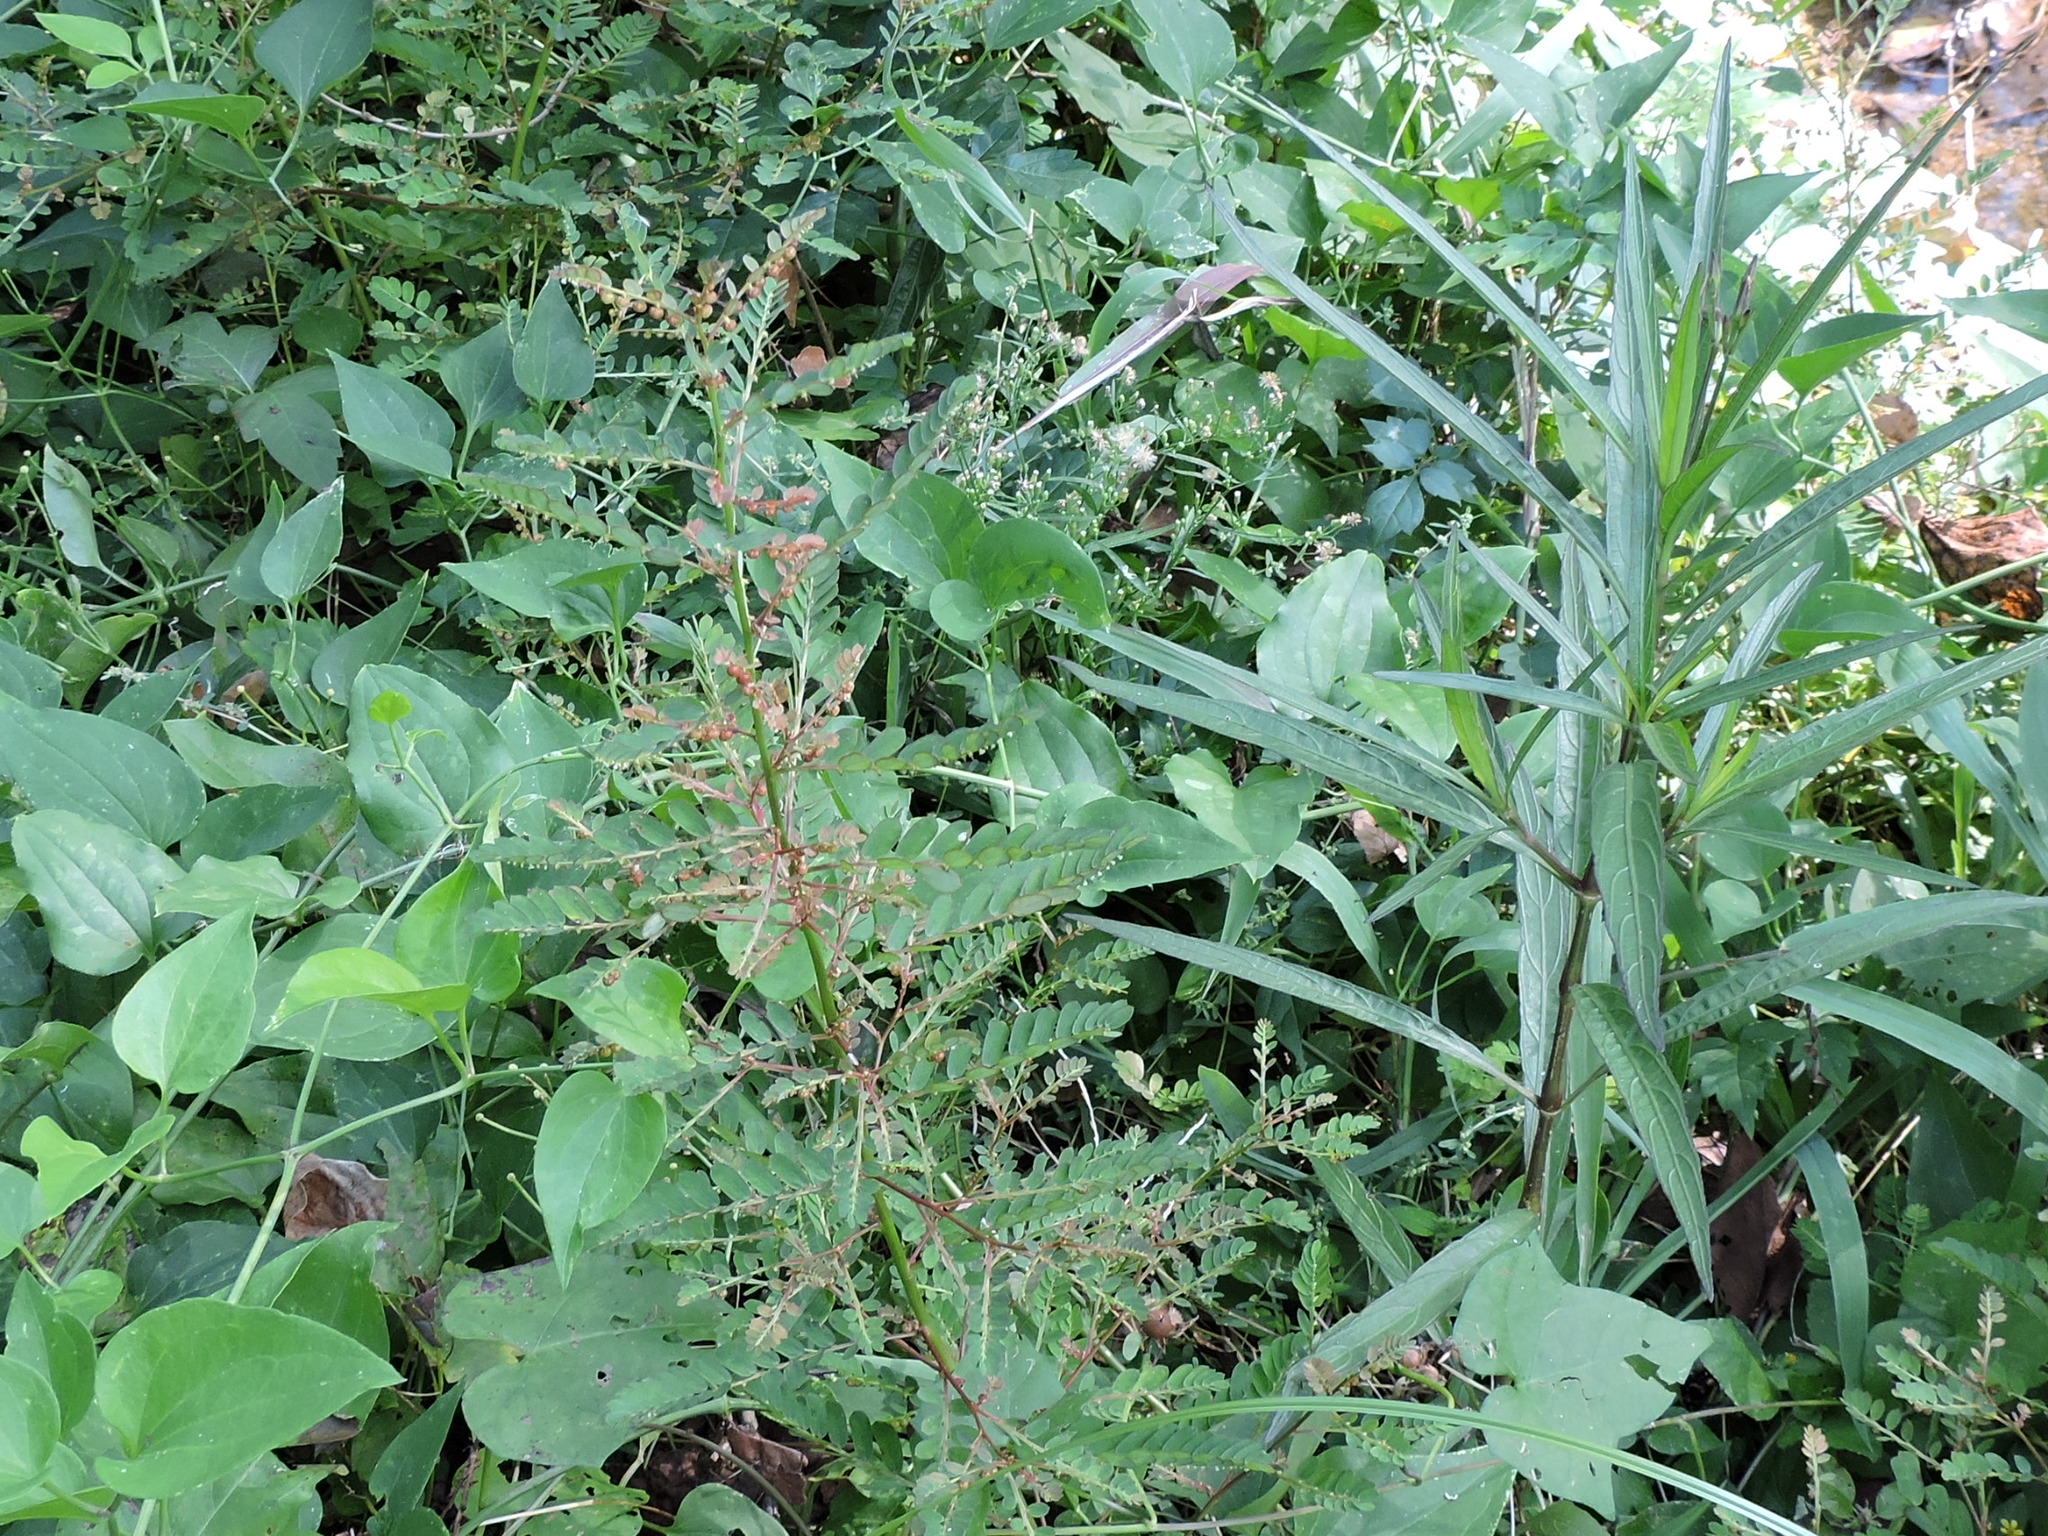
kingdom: Plantae
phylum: Tracheophyta
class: Magnoliopsida
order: Malpighiales
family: Phyllanthaceae
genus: Phyllanthus
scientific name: Phyllanthus urinaria
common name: Chamber bitter
